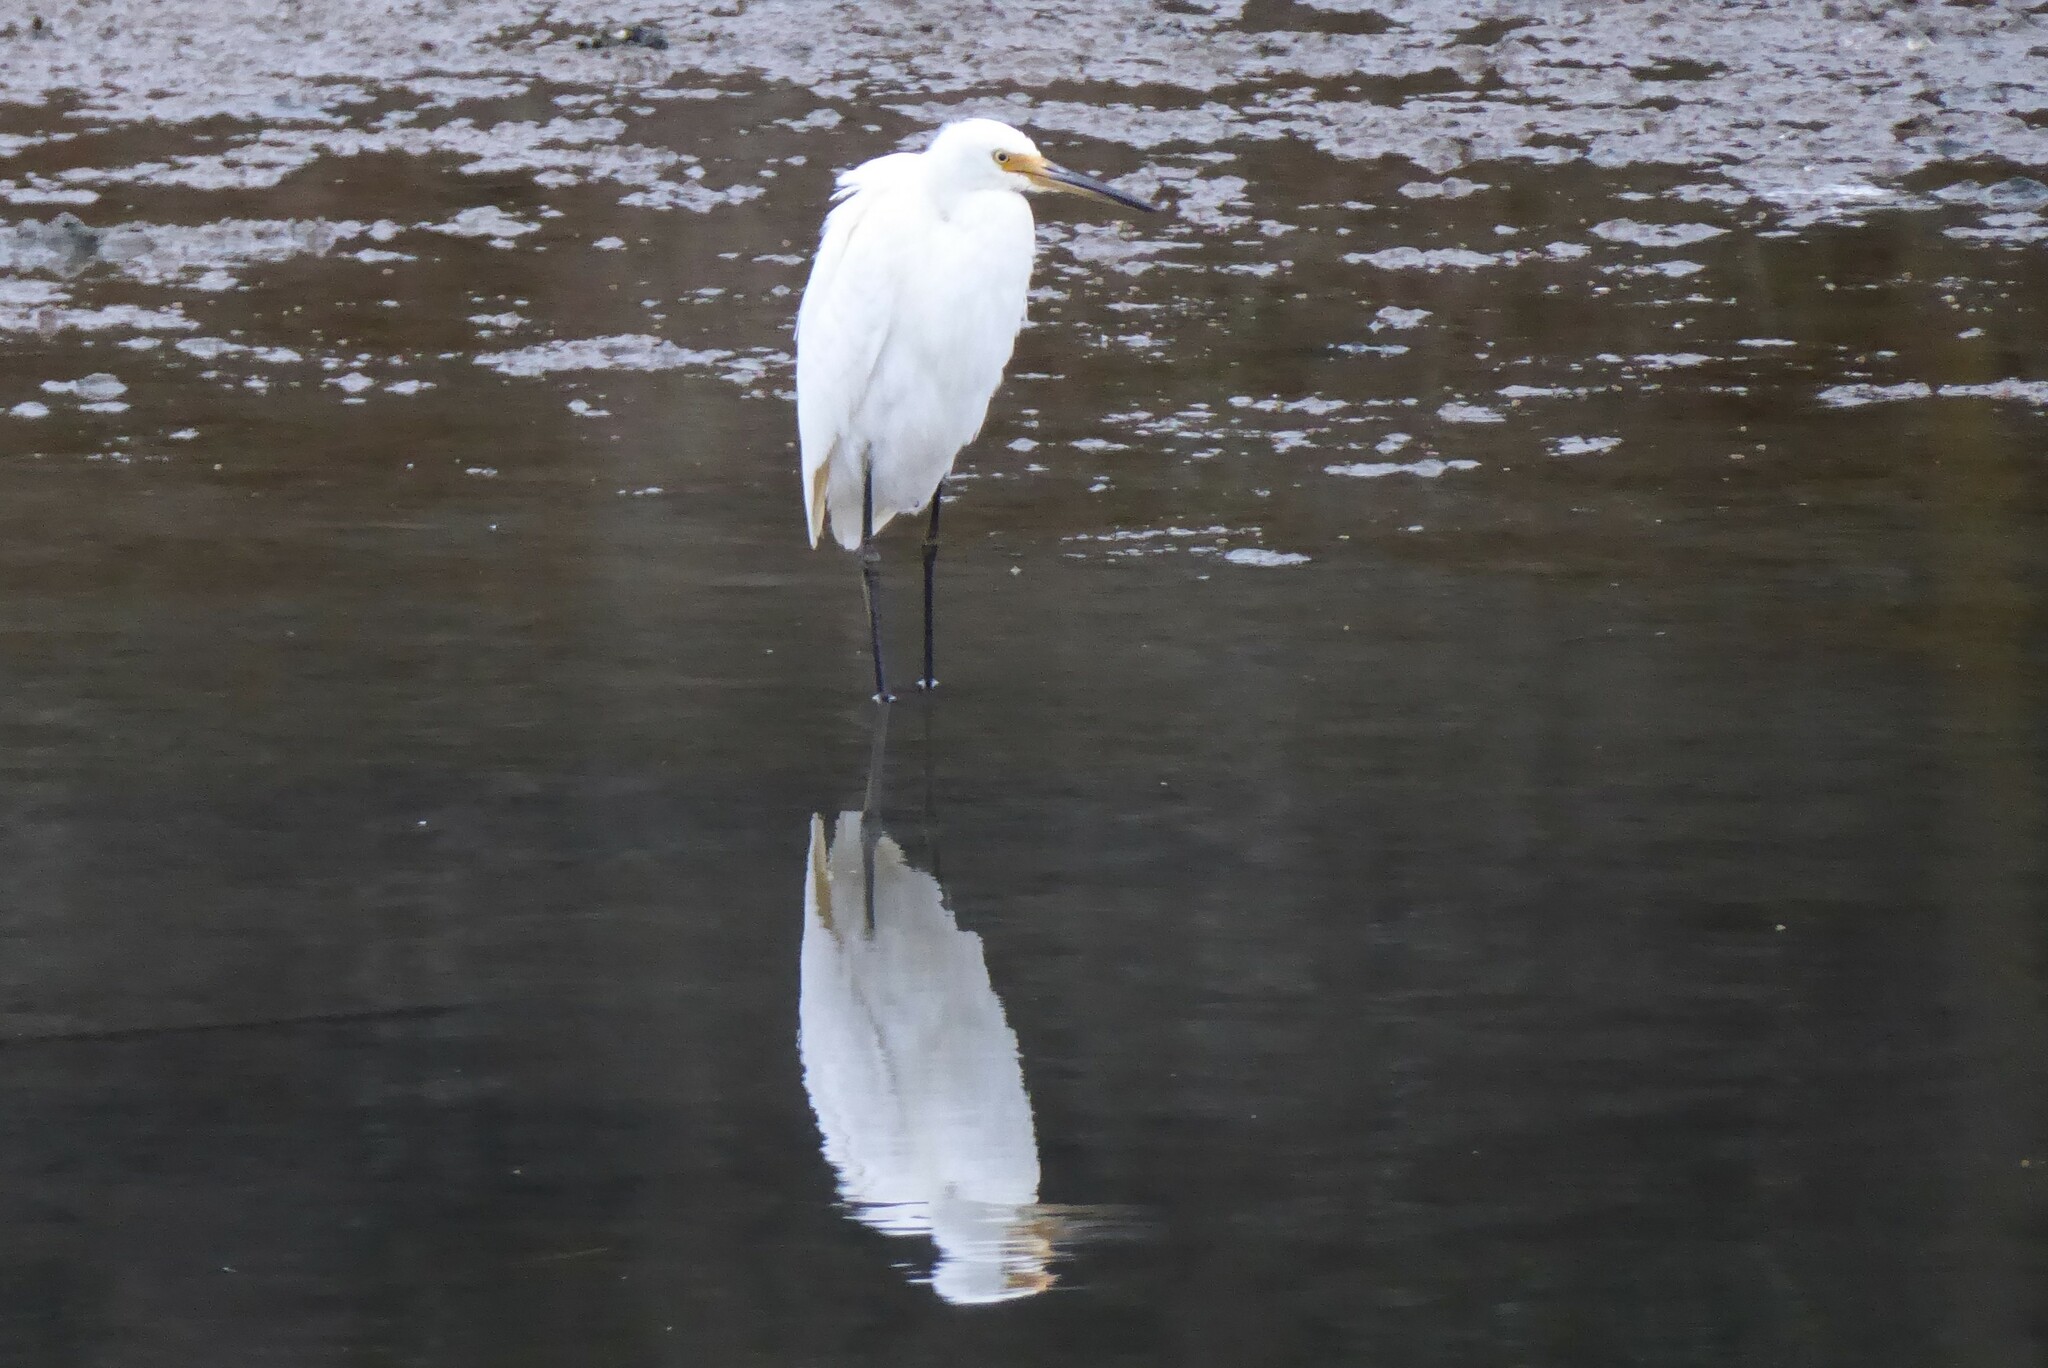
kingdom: Animalia
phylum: Chordata
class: Aves
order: Pelecaniformes
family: Ardeidae
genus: Egretta
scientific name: Egretta garzetta
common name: Little egret
